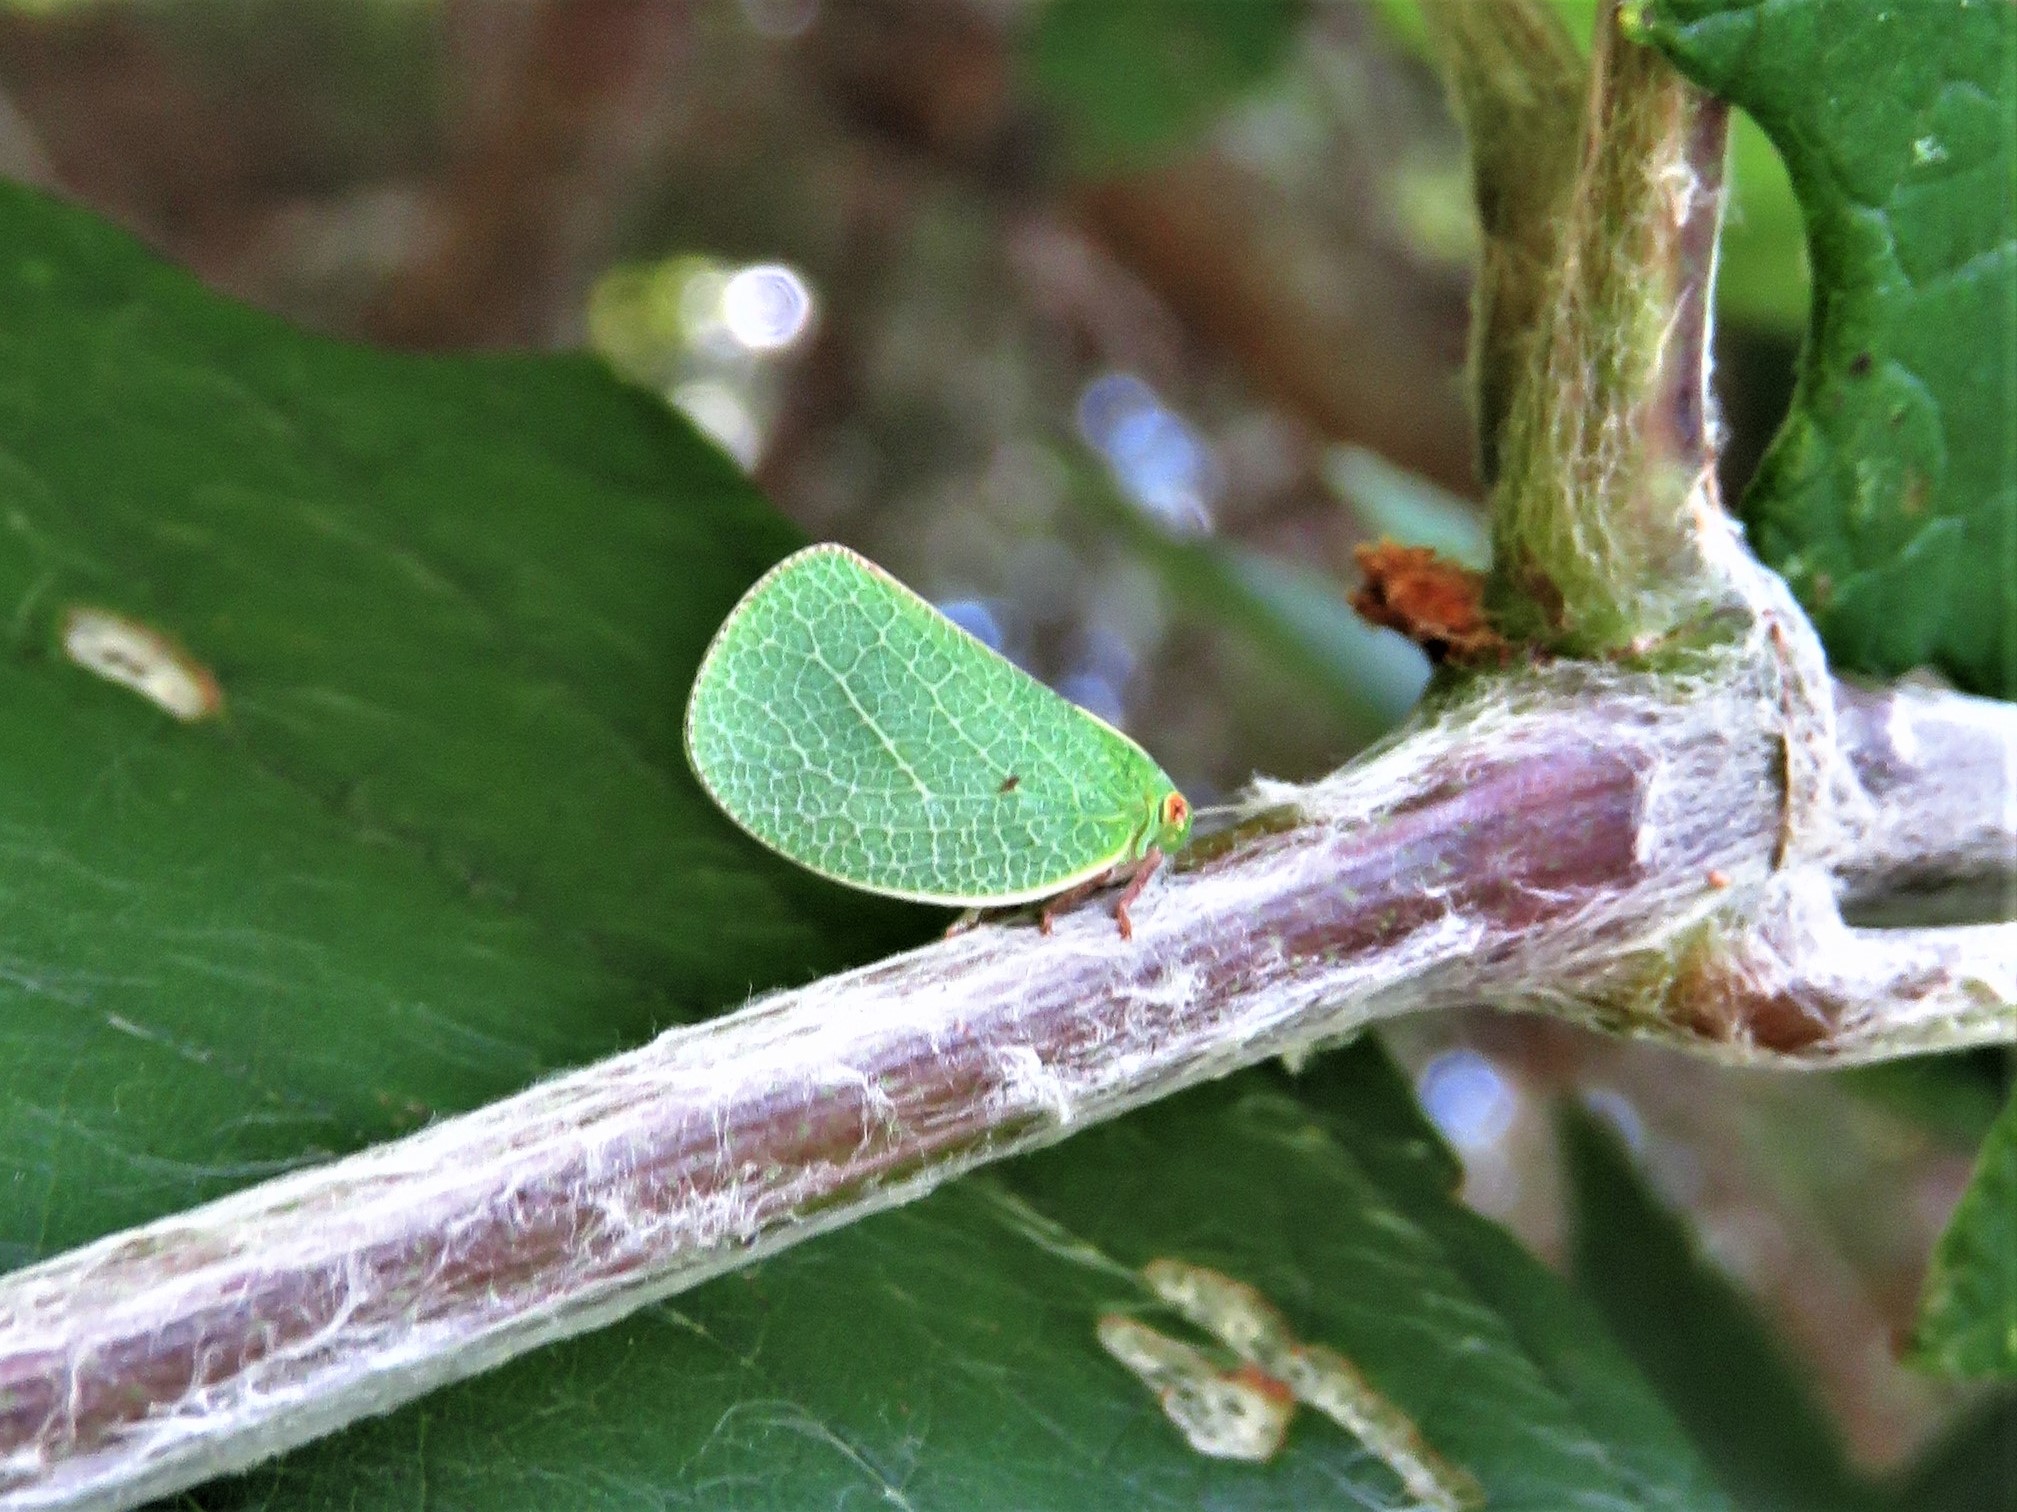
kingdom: Animalia
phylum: Arthropoda
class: Insecta
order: Hemiptera
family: Acanaloniidae
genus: Acanalonia
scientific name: Acanalonia servillei
